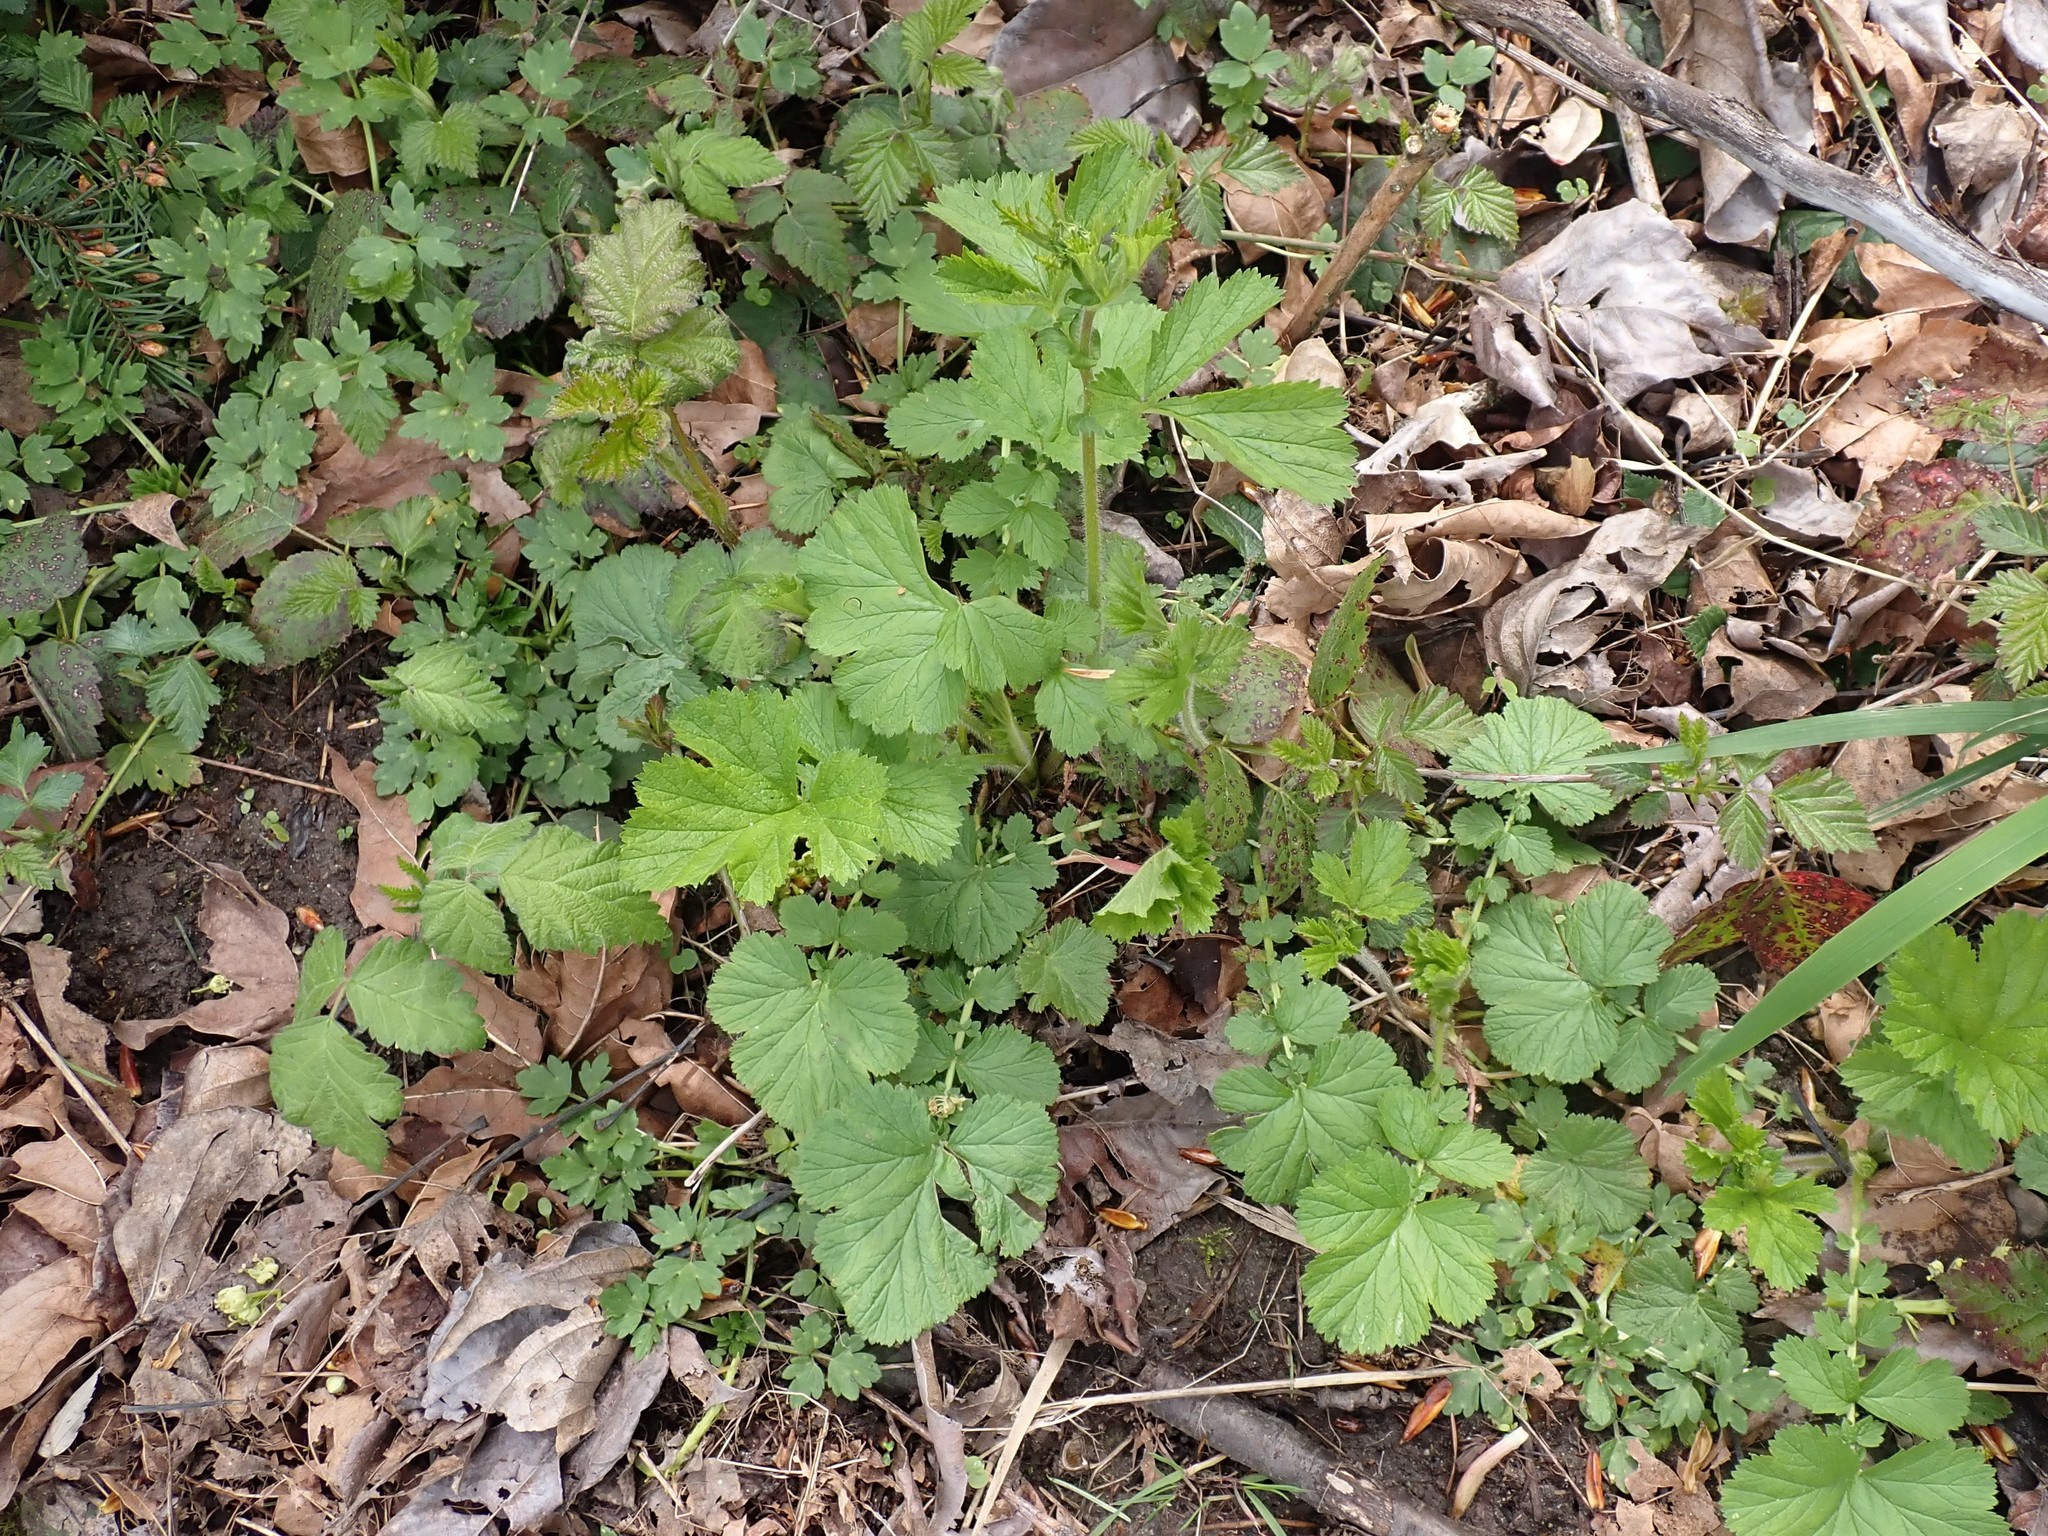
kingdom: Plantae
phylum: Tracheophyta
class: Magnoliopsida
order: Rosales
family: Rosaceae
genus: Geum
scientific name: Geum macrophyllum
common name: Large-leaved avens
